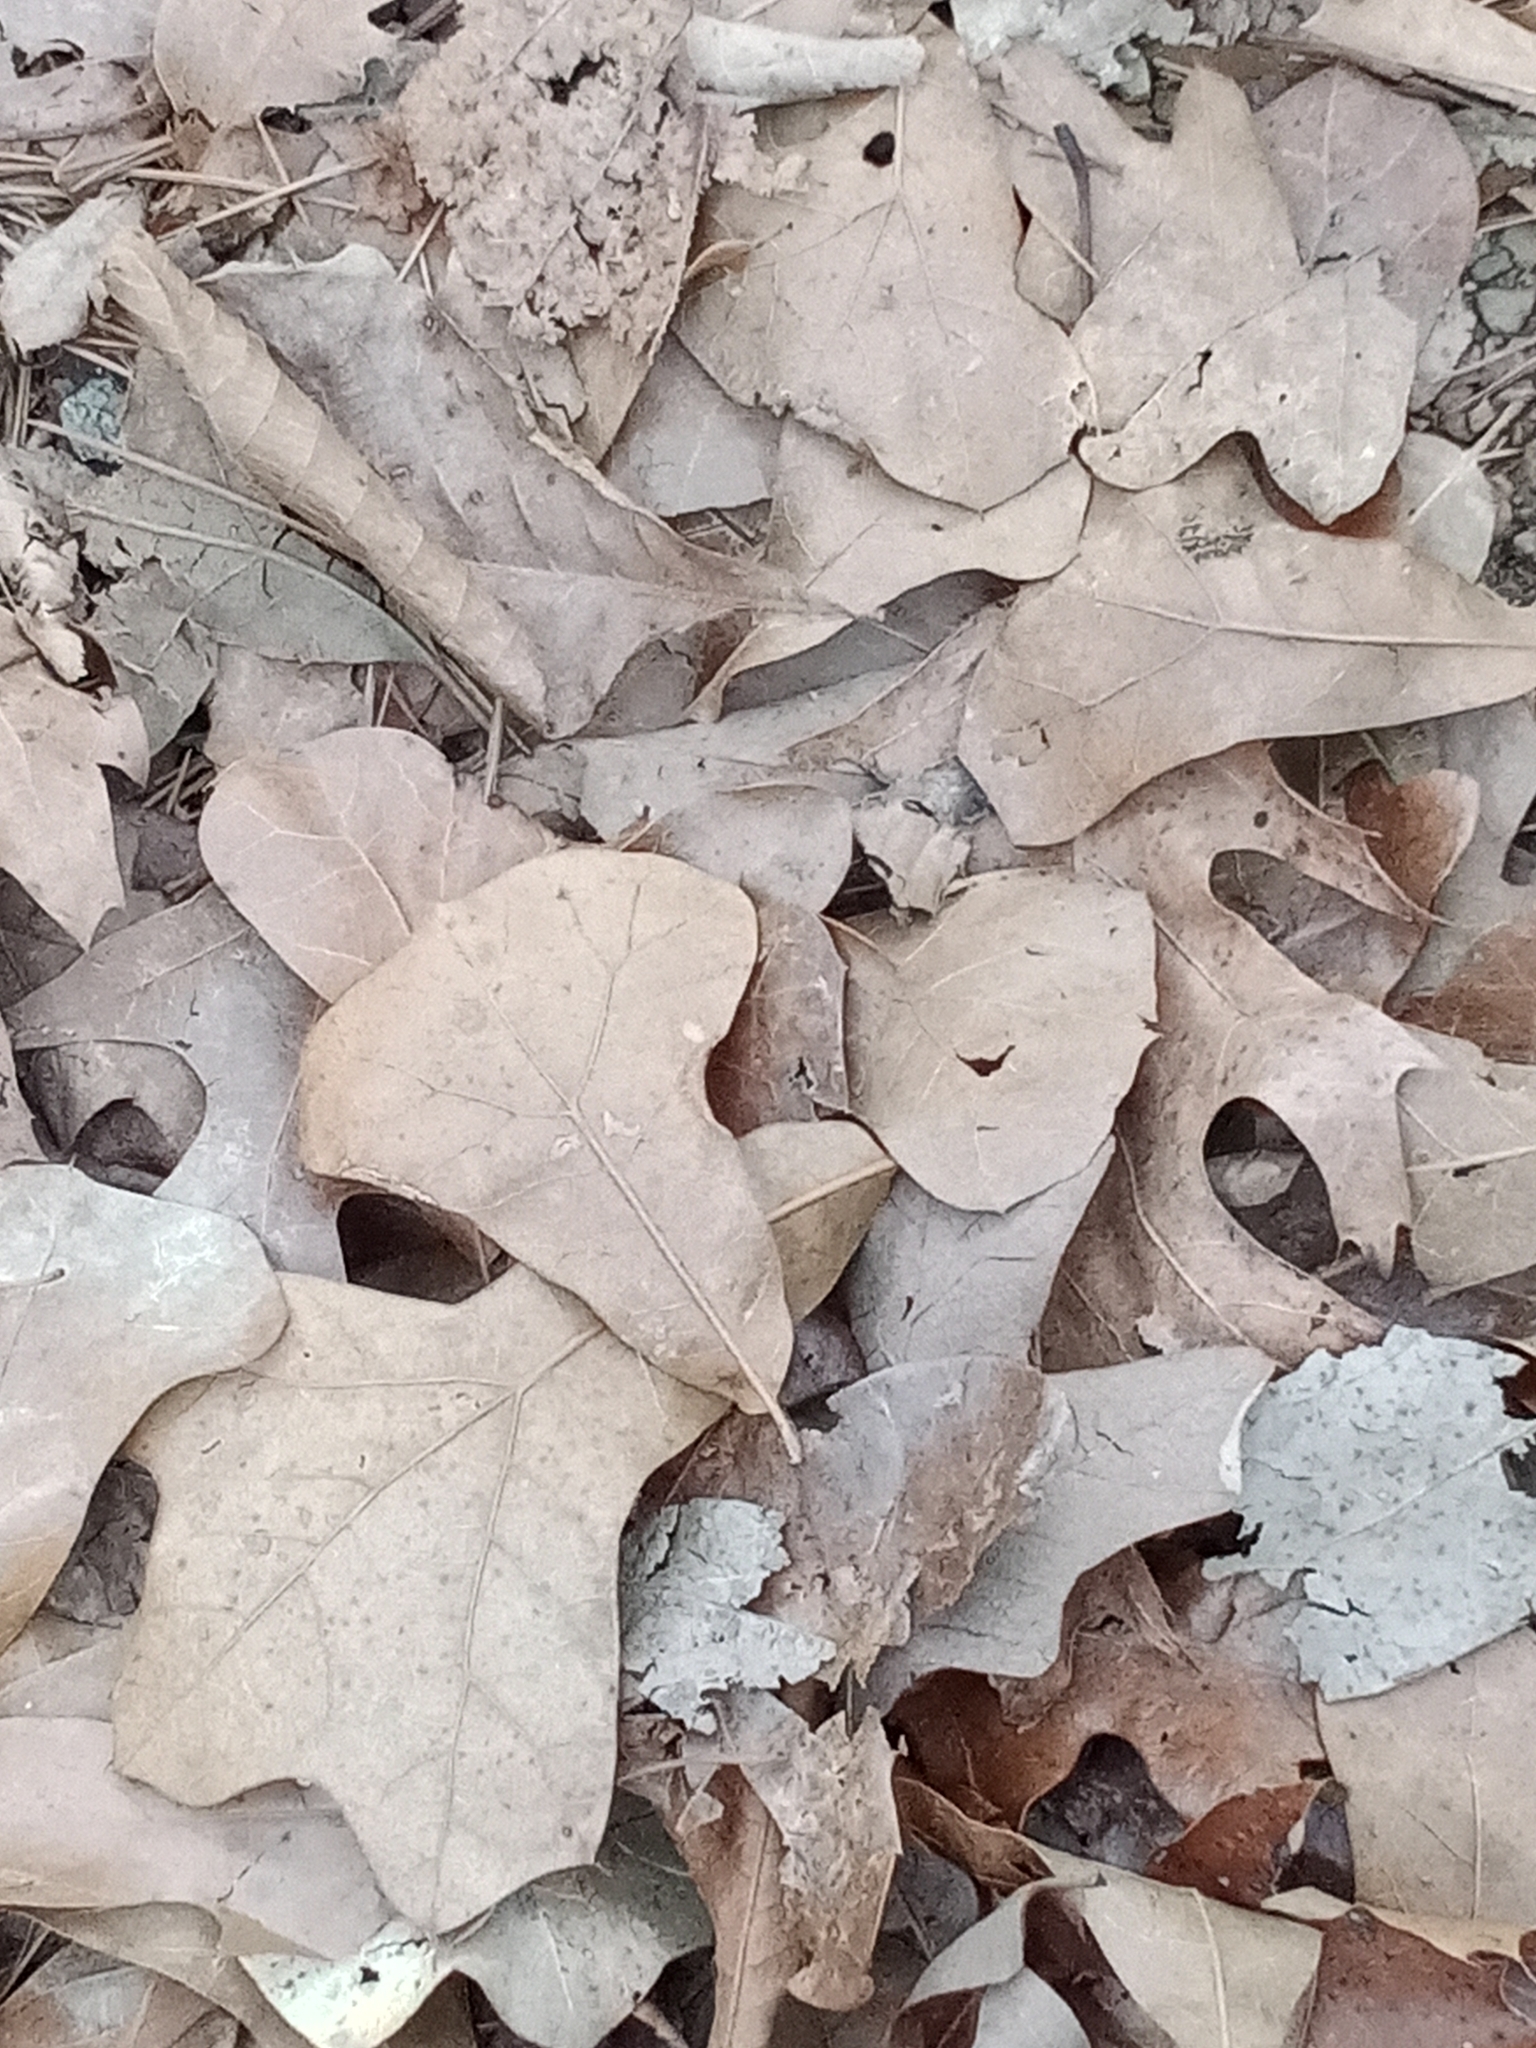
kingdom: Plantae
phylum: Tracheophyta
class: Magnoliopsida
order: Fagales
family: Fagaceae
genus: Quercus
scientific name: Quercus marilandica
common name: Blackjack oak
